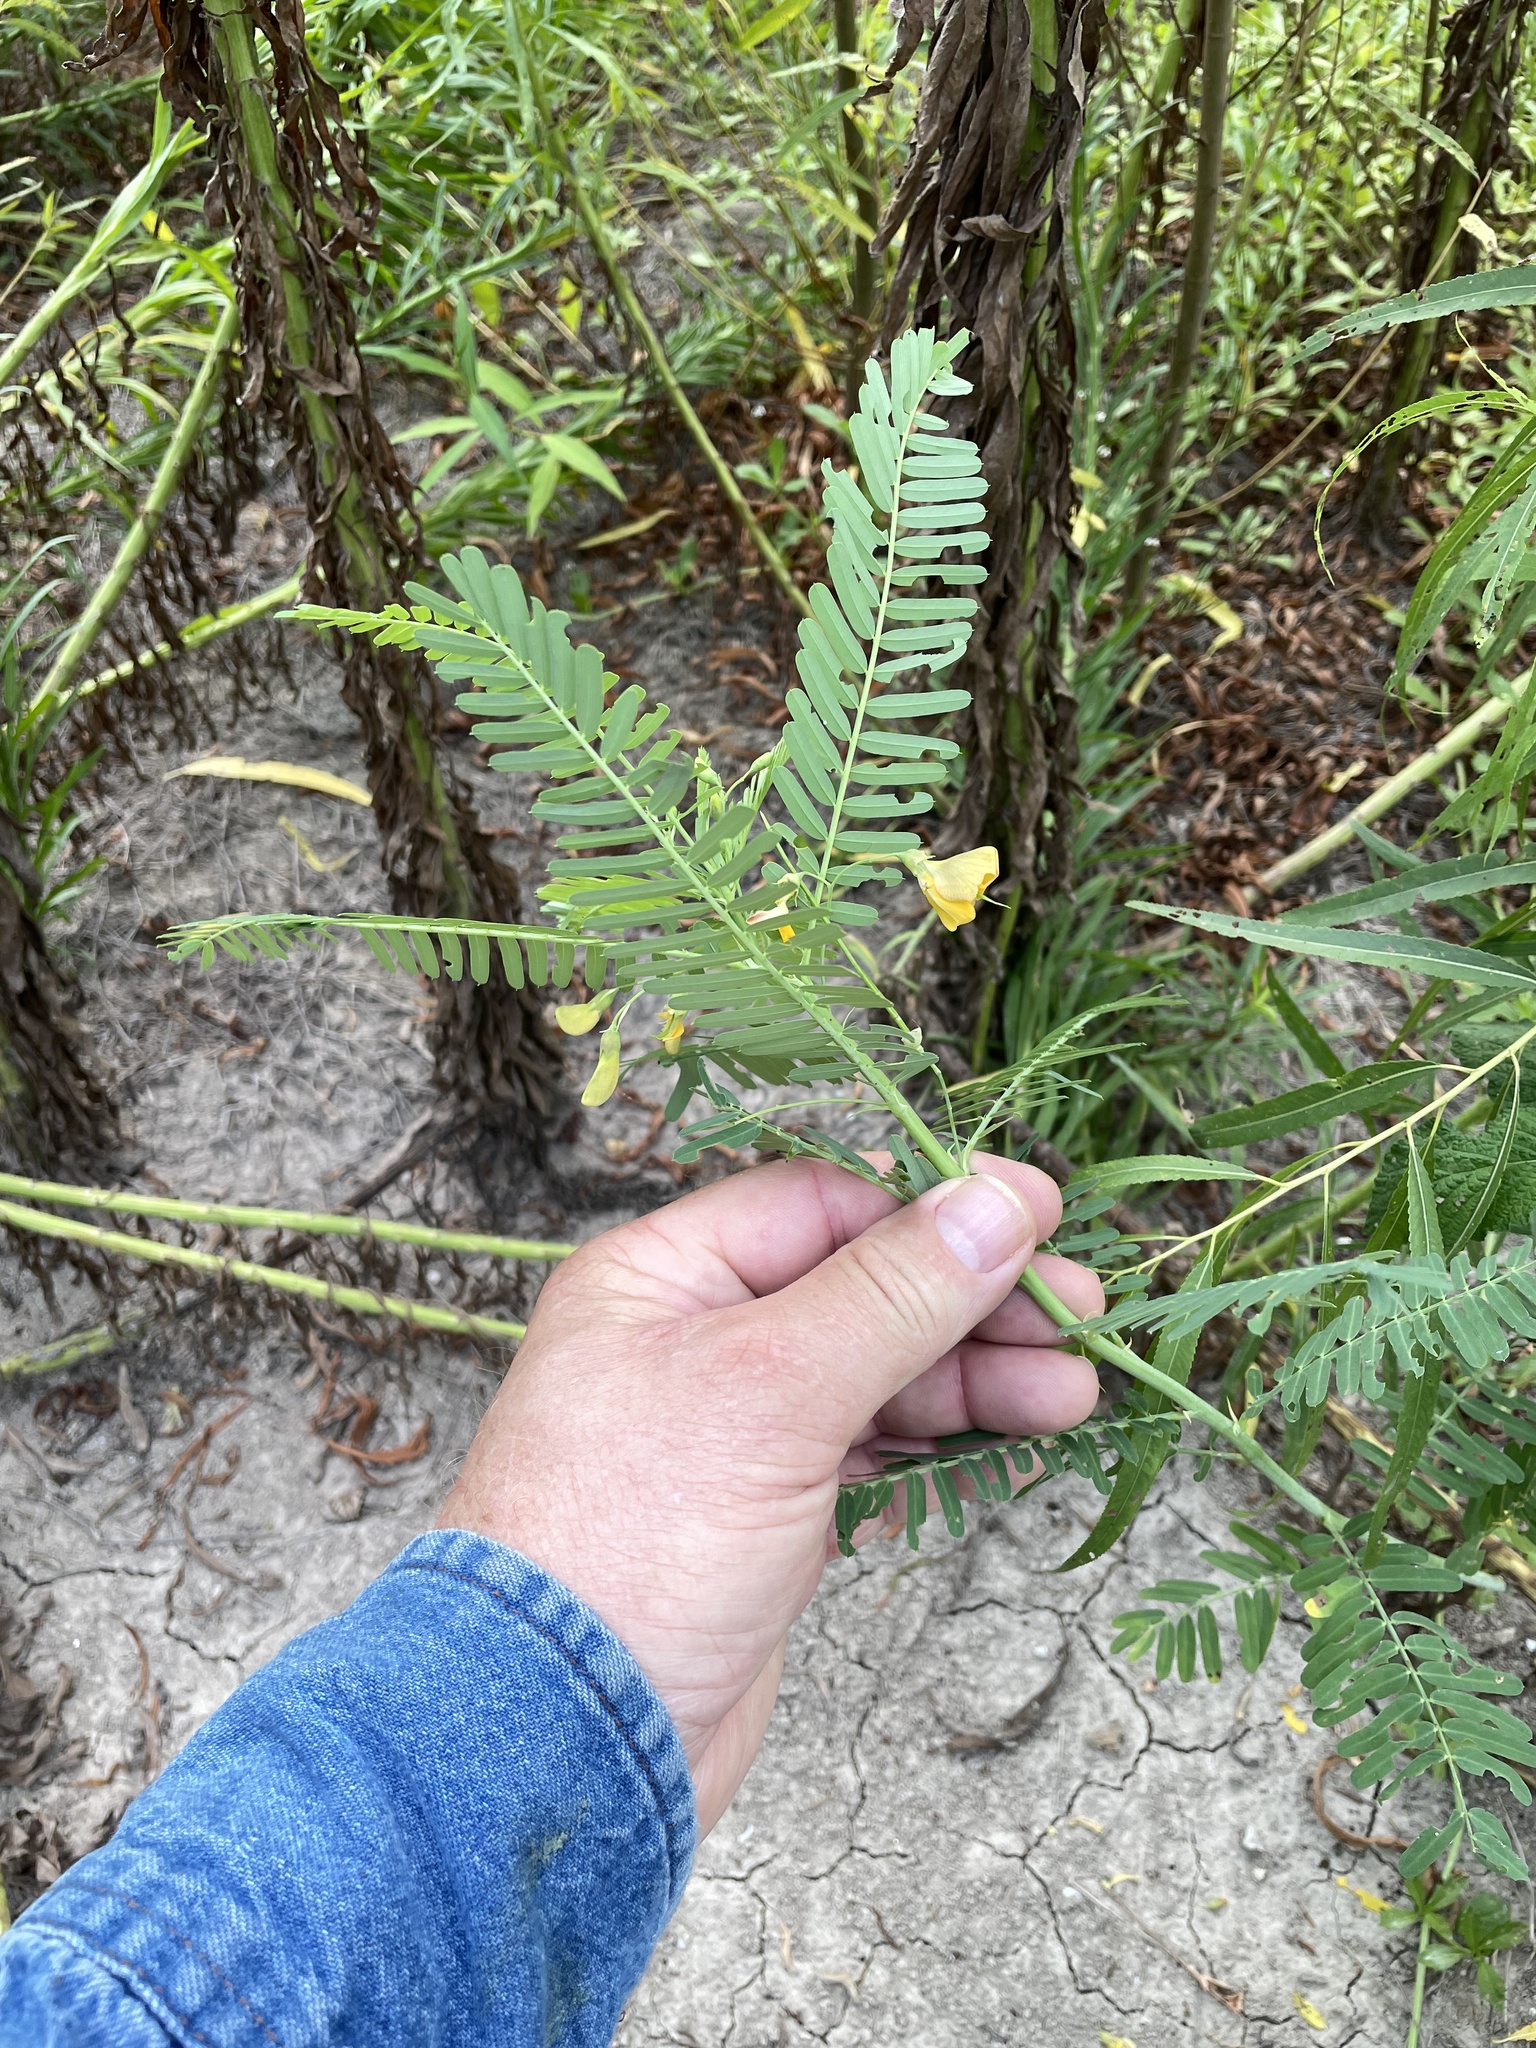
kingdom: Plantae
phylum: Tracheophyta
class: Magnoliopsida
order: Fabales
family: Fabaceae
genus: Sesbania
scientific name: Sesbania herbacea
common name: Bigpod sesbania
